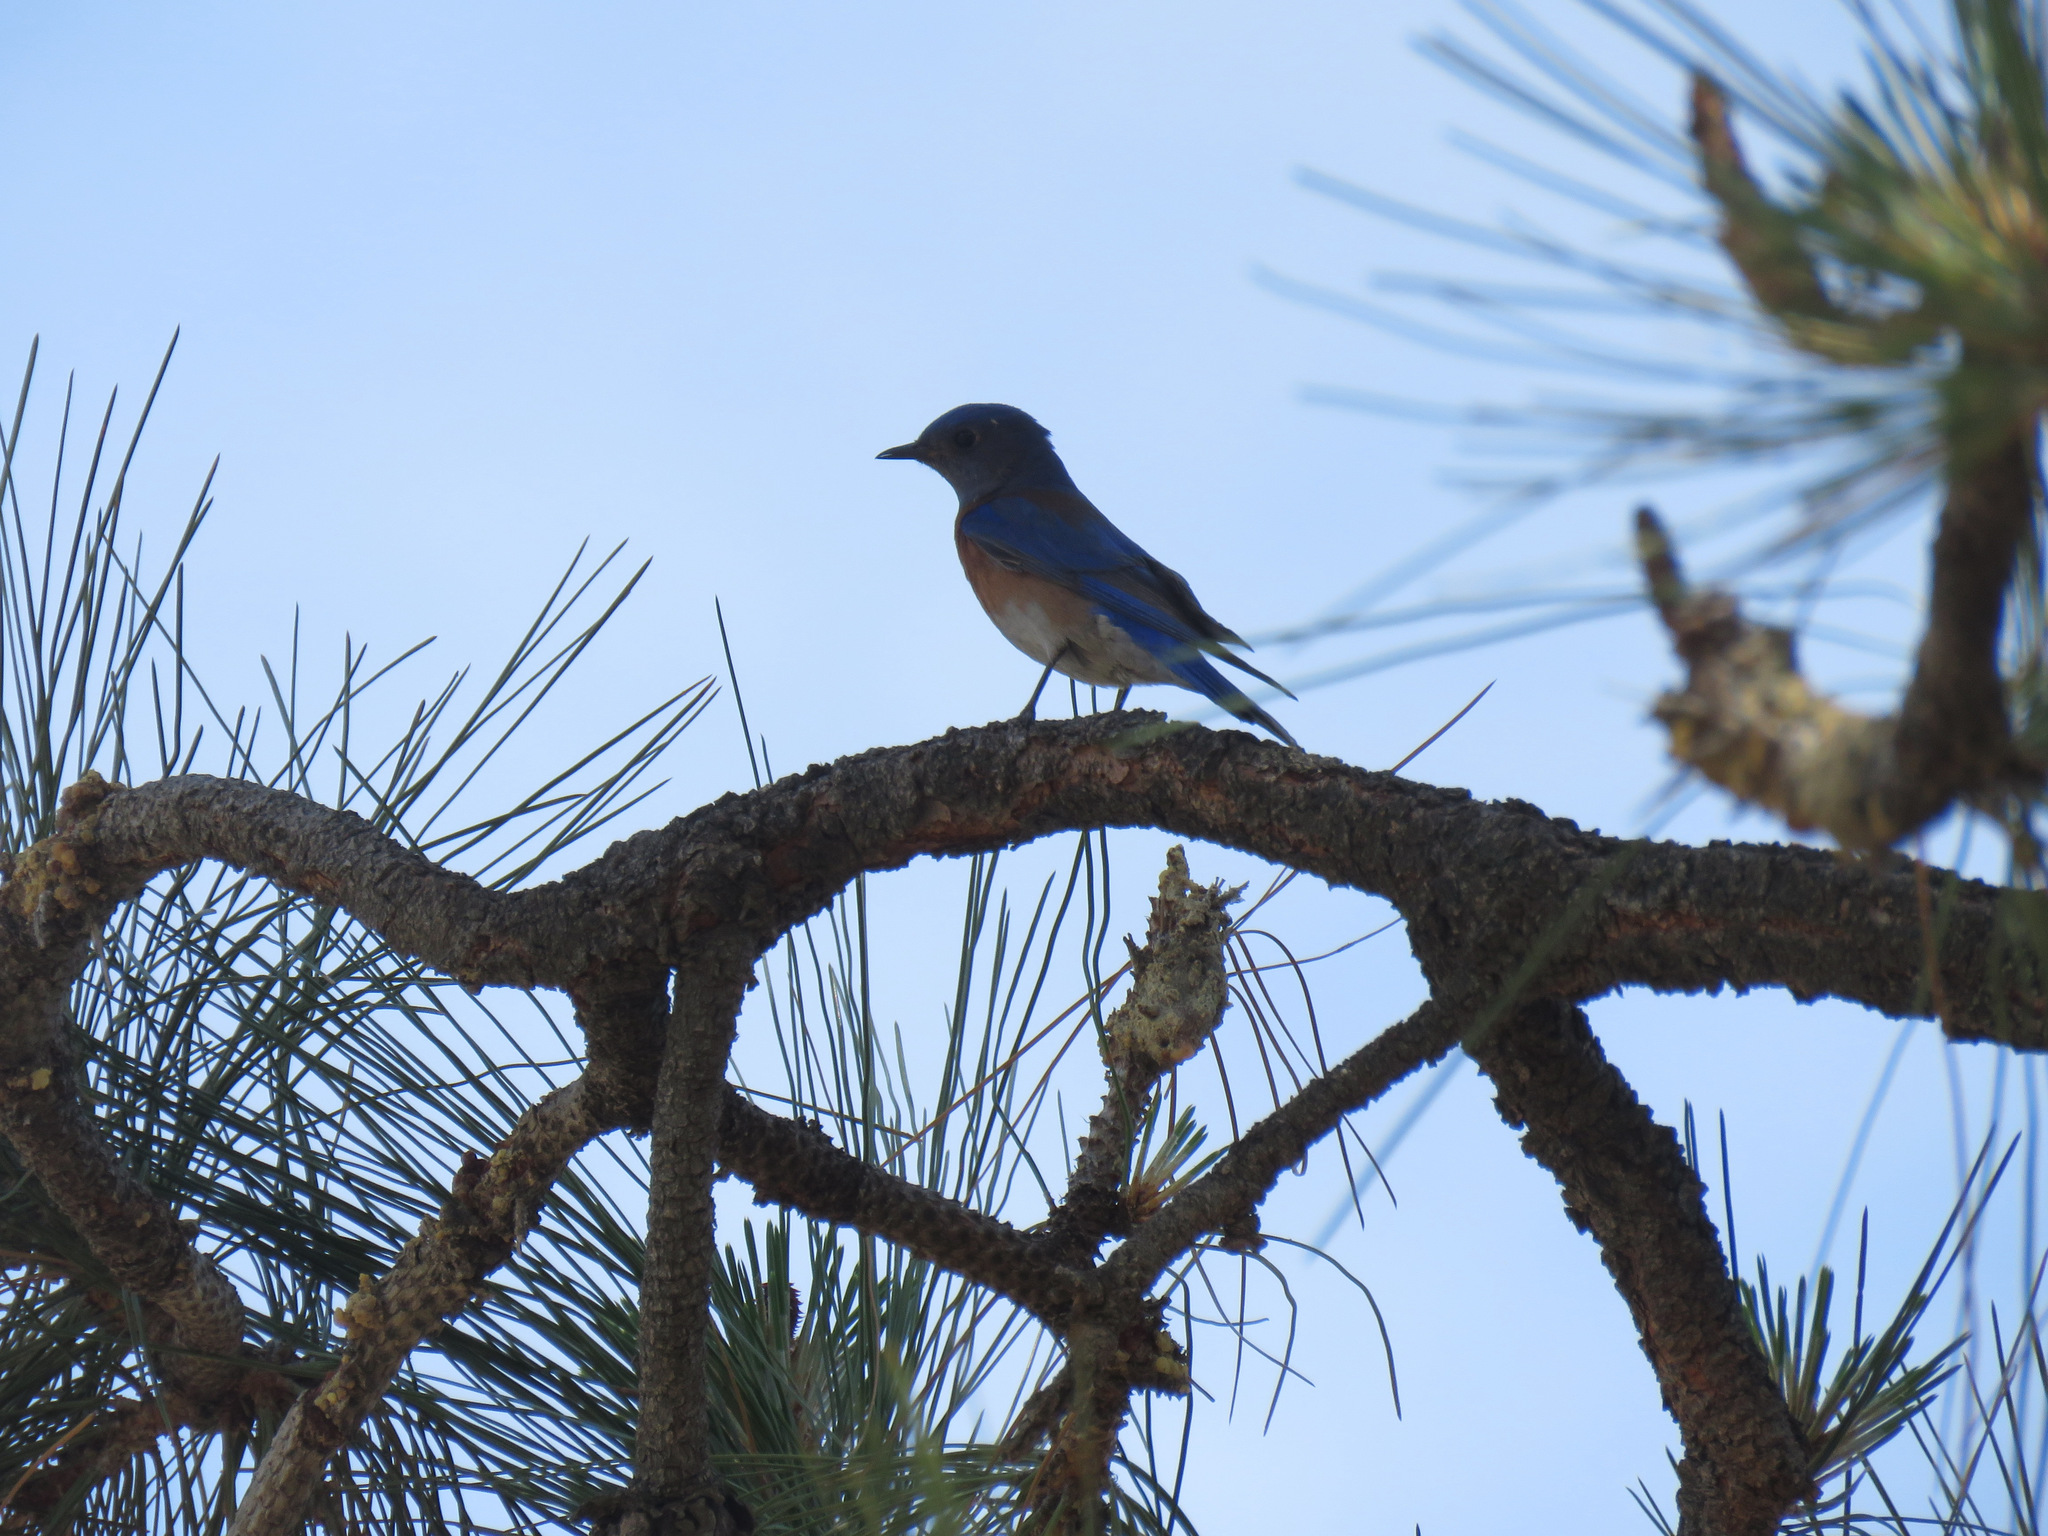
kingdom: Animalia
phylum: Chordata
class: Aves
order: Passeriformes
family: Turdidae
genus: Sialia
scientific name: Sialia mexicana
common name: Western bluebird
